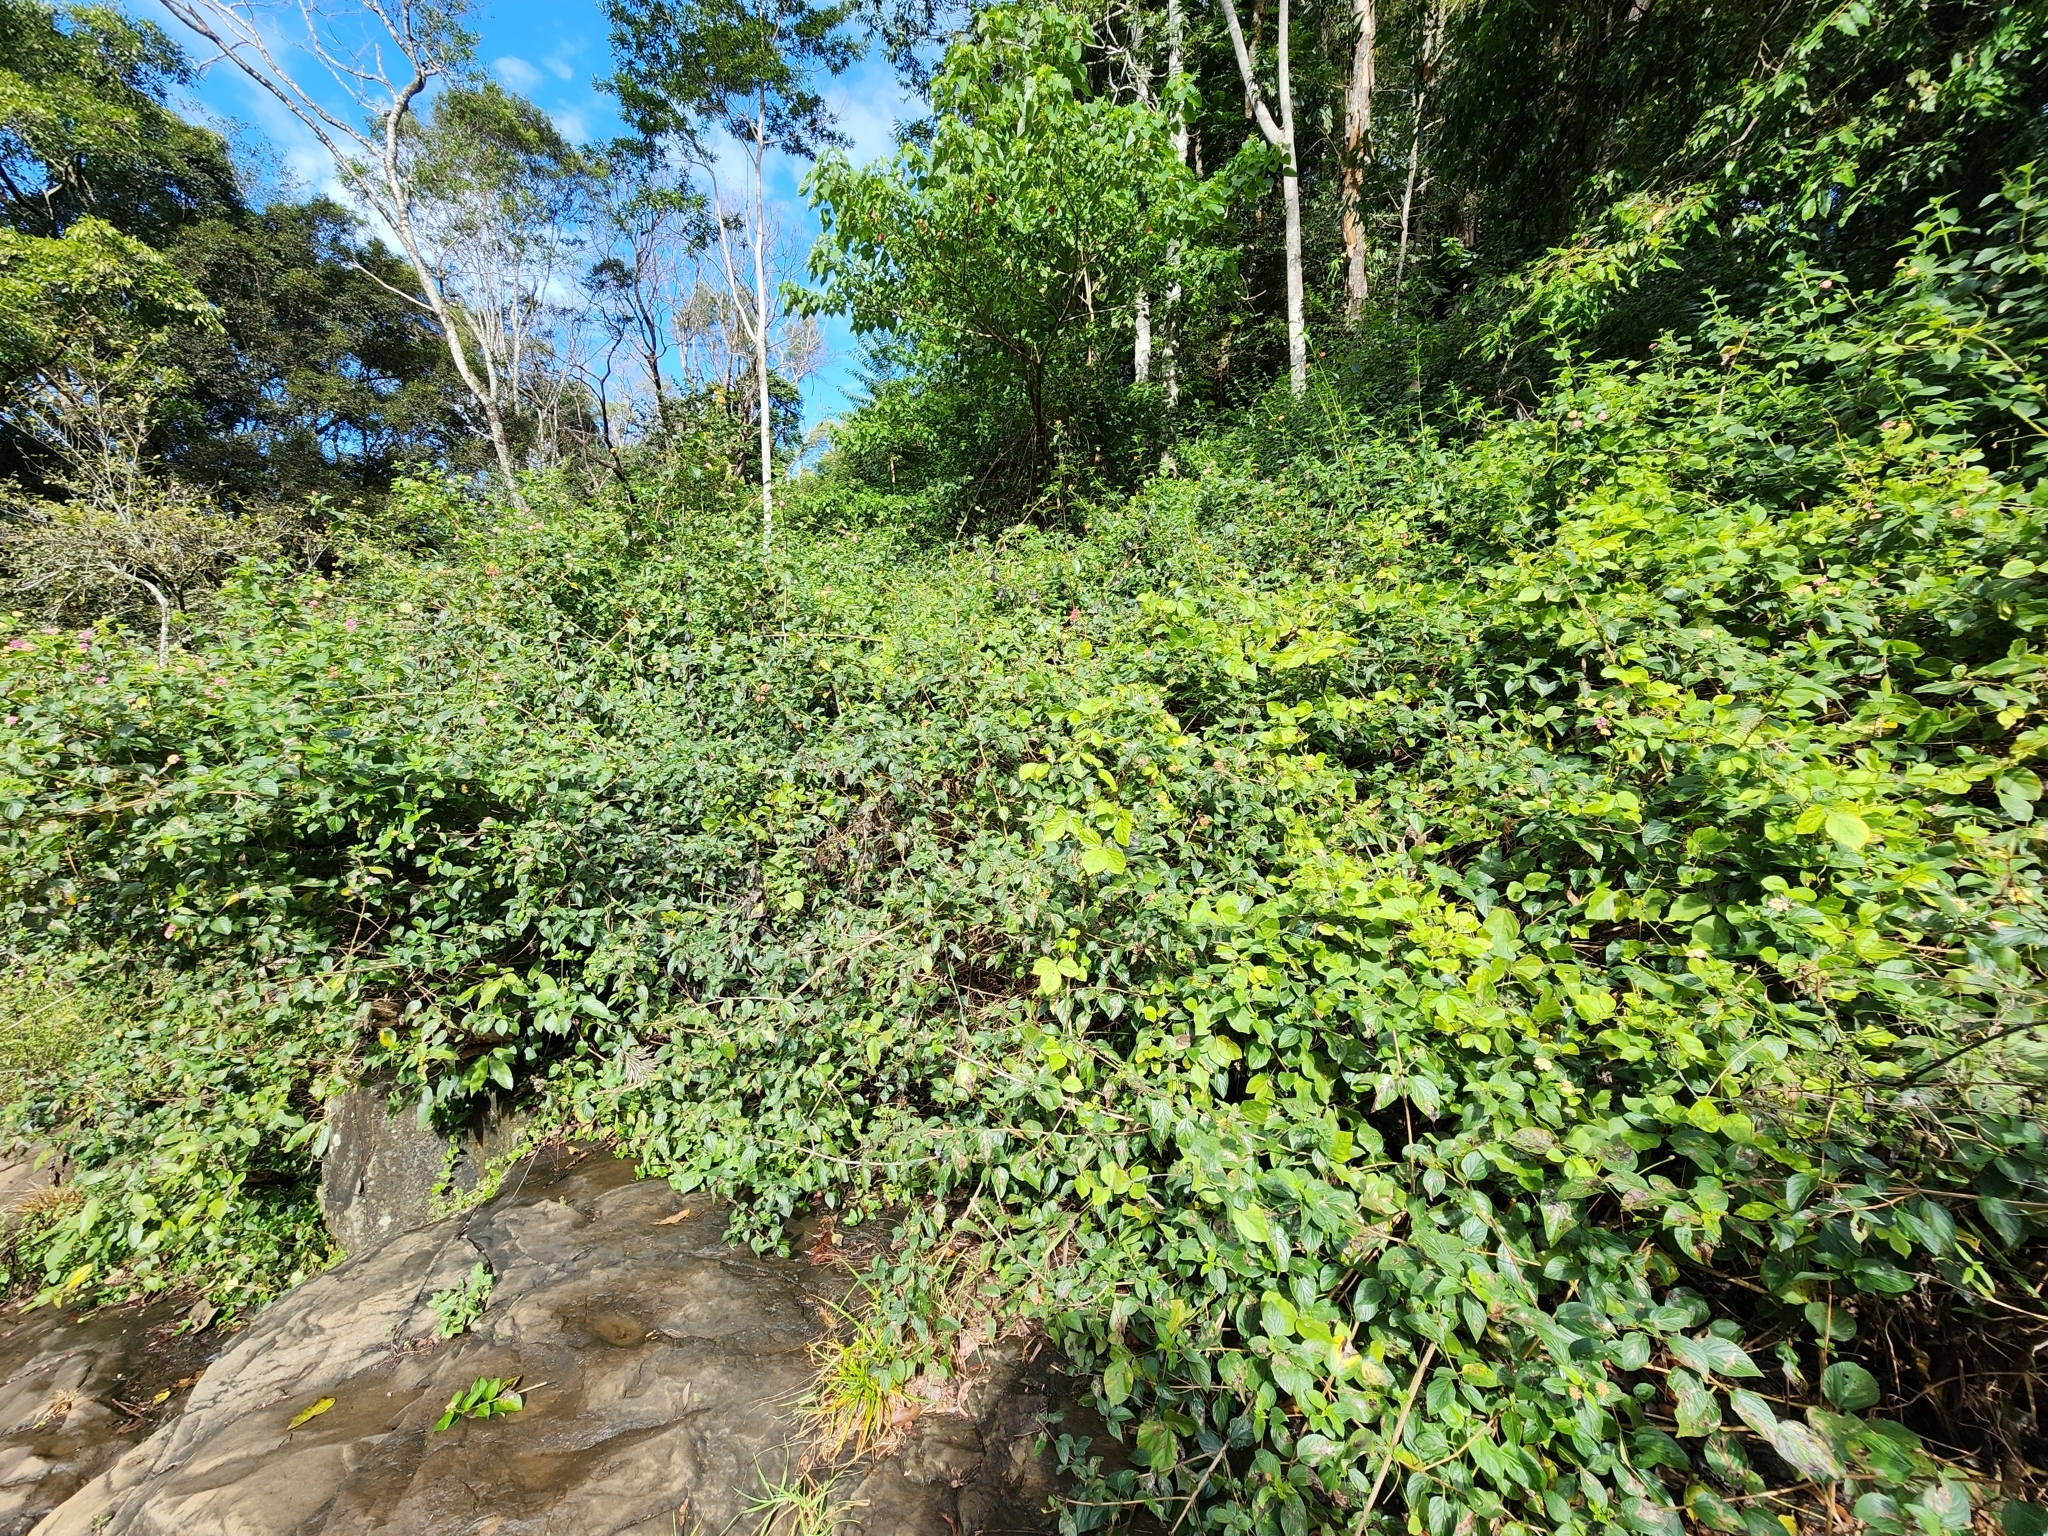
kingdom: Plantae
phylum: Tracheophyta
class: Magnoliopsida
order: Lamiales
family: Verbenaceae
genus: Lantana
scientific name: Lantana camara
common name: Lantana
